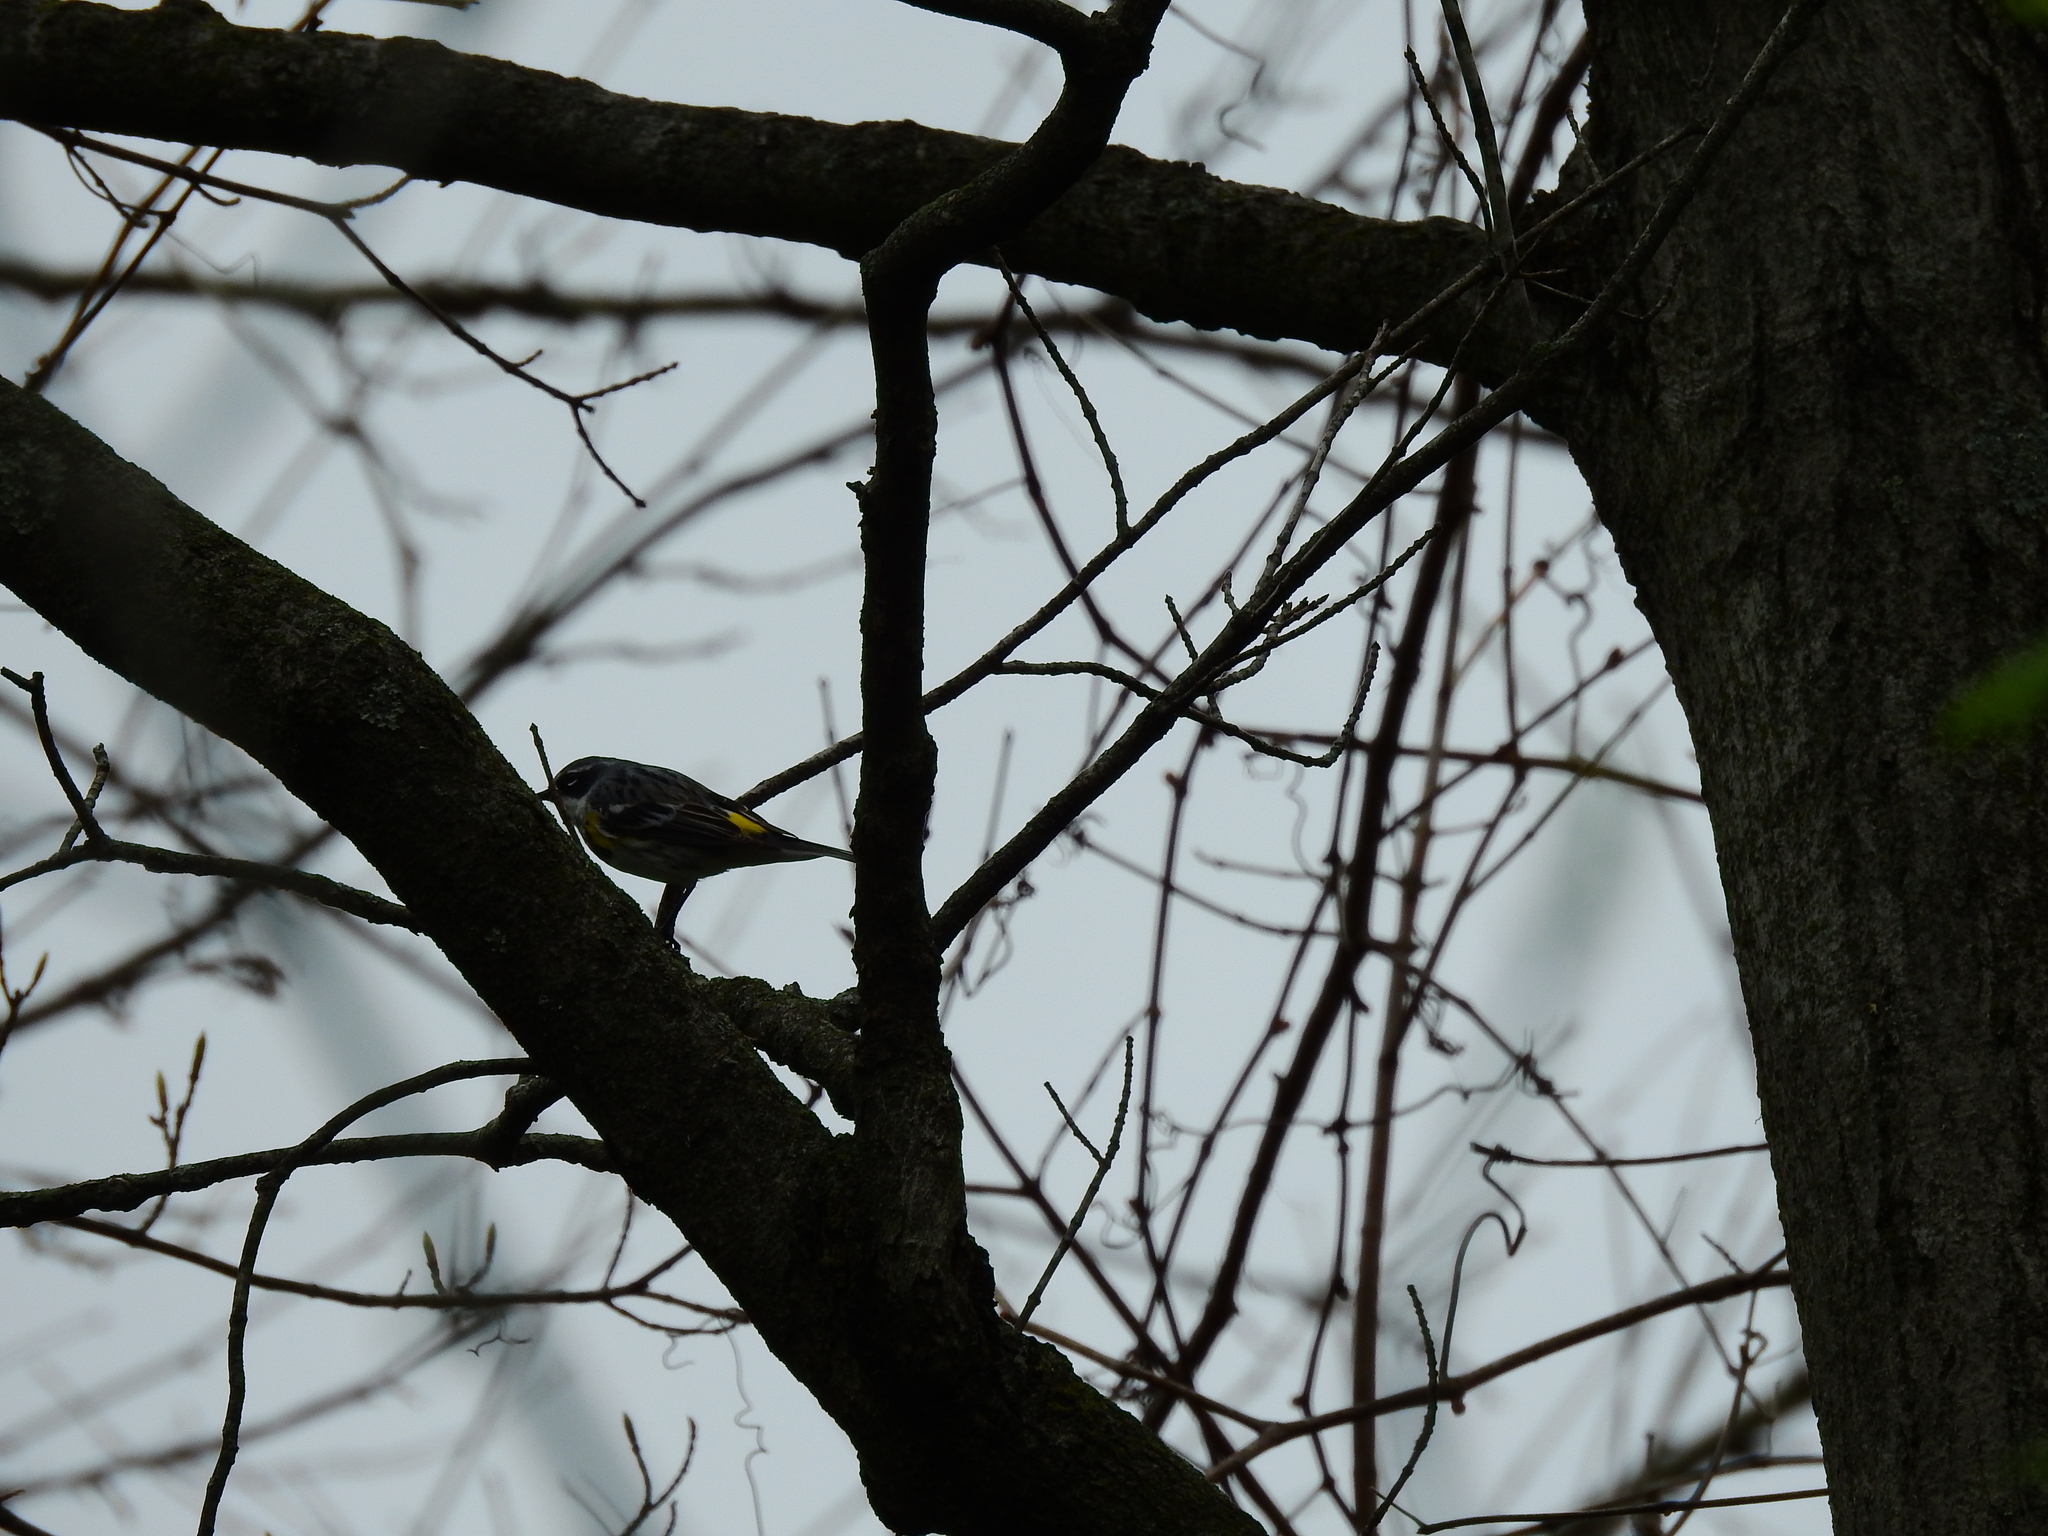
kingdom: Animalia
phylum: Chordata
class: Aves
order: Passeriformes
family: Parulidae
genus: Setophaga
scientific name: Setophaga coronata
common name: Myrtle warbler
